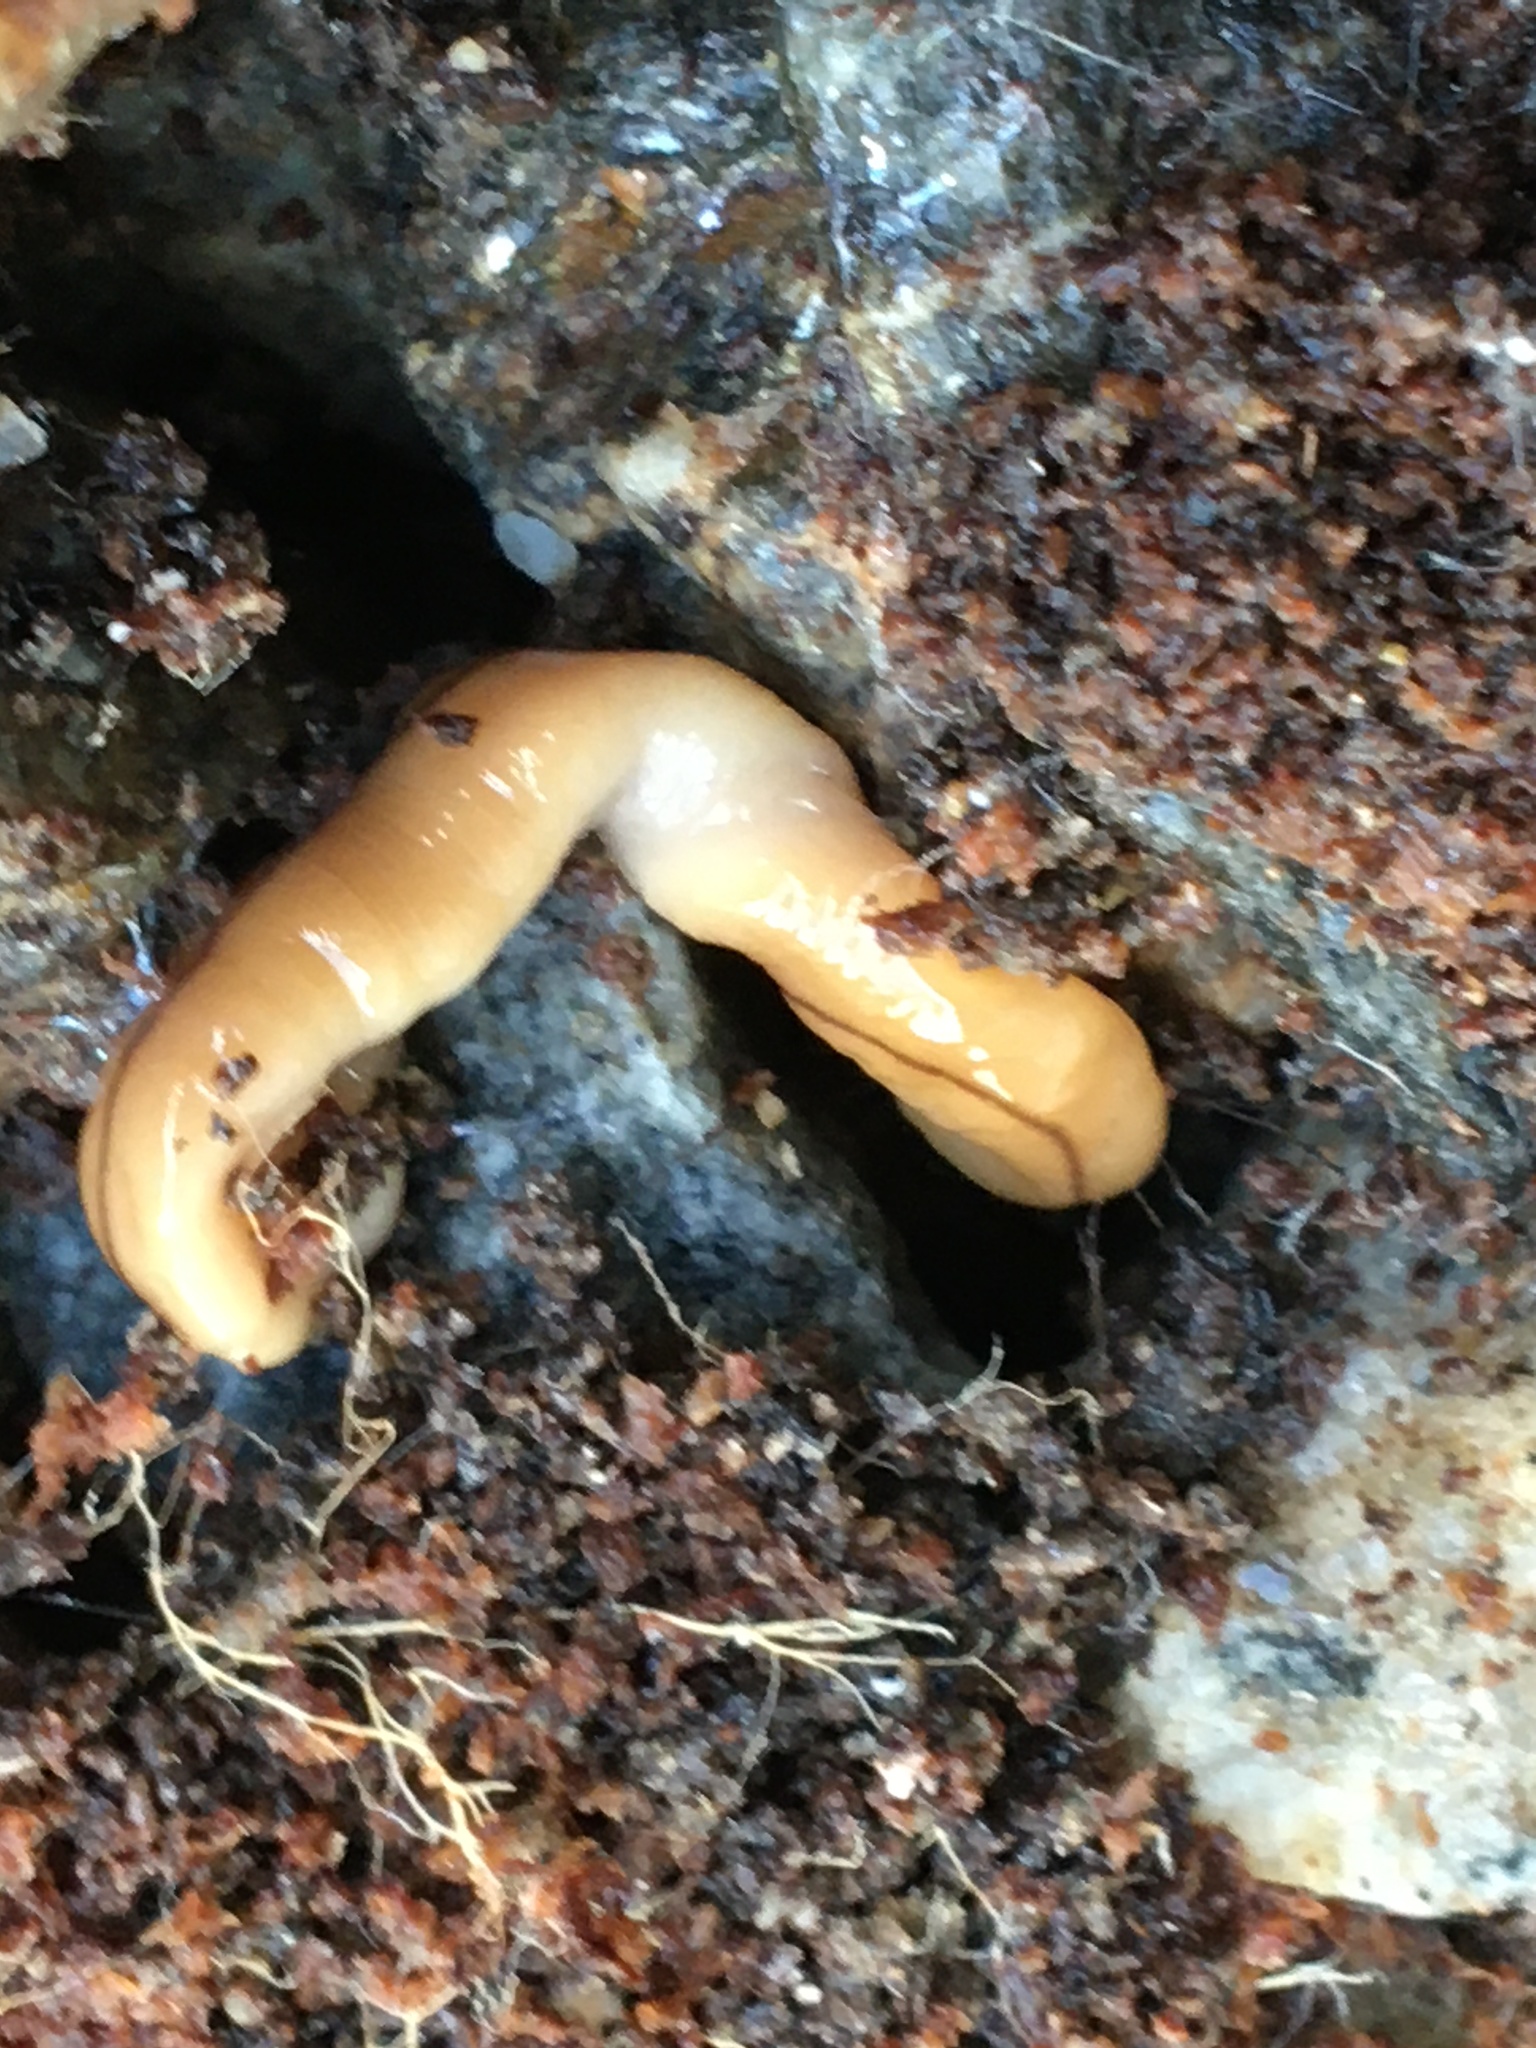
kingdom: Animalia
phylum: Platyhelminthes
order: Tricladida
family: Geoplanidae
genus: Bipalium
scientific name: Bipalium adventitium
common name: Land planarian
